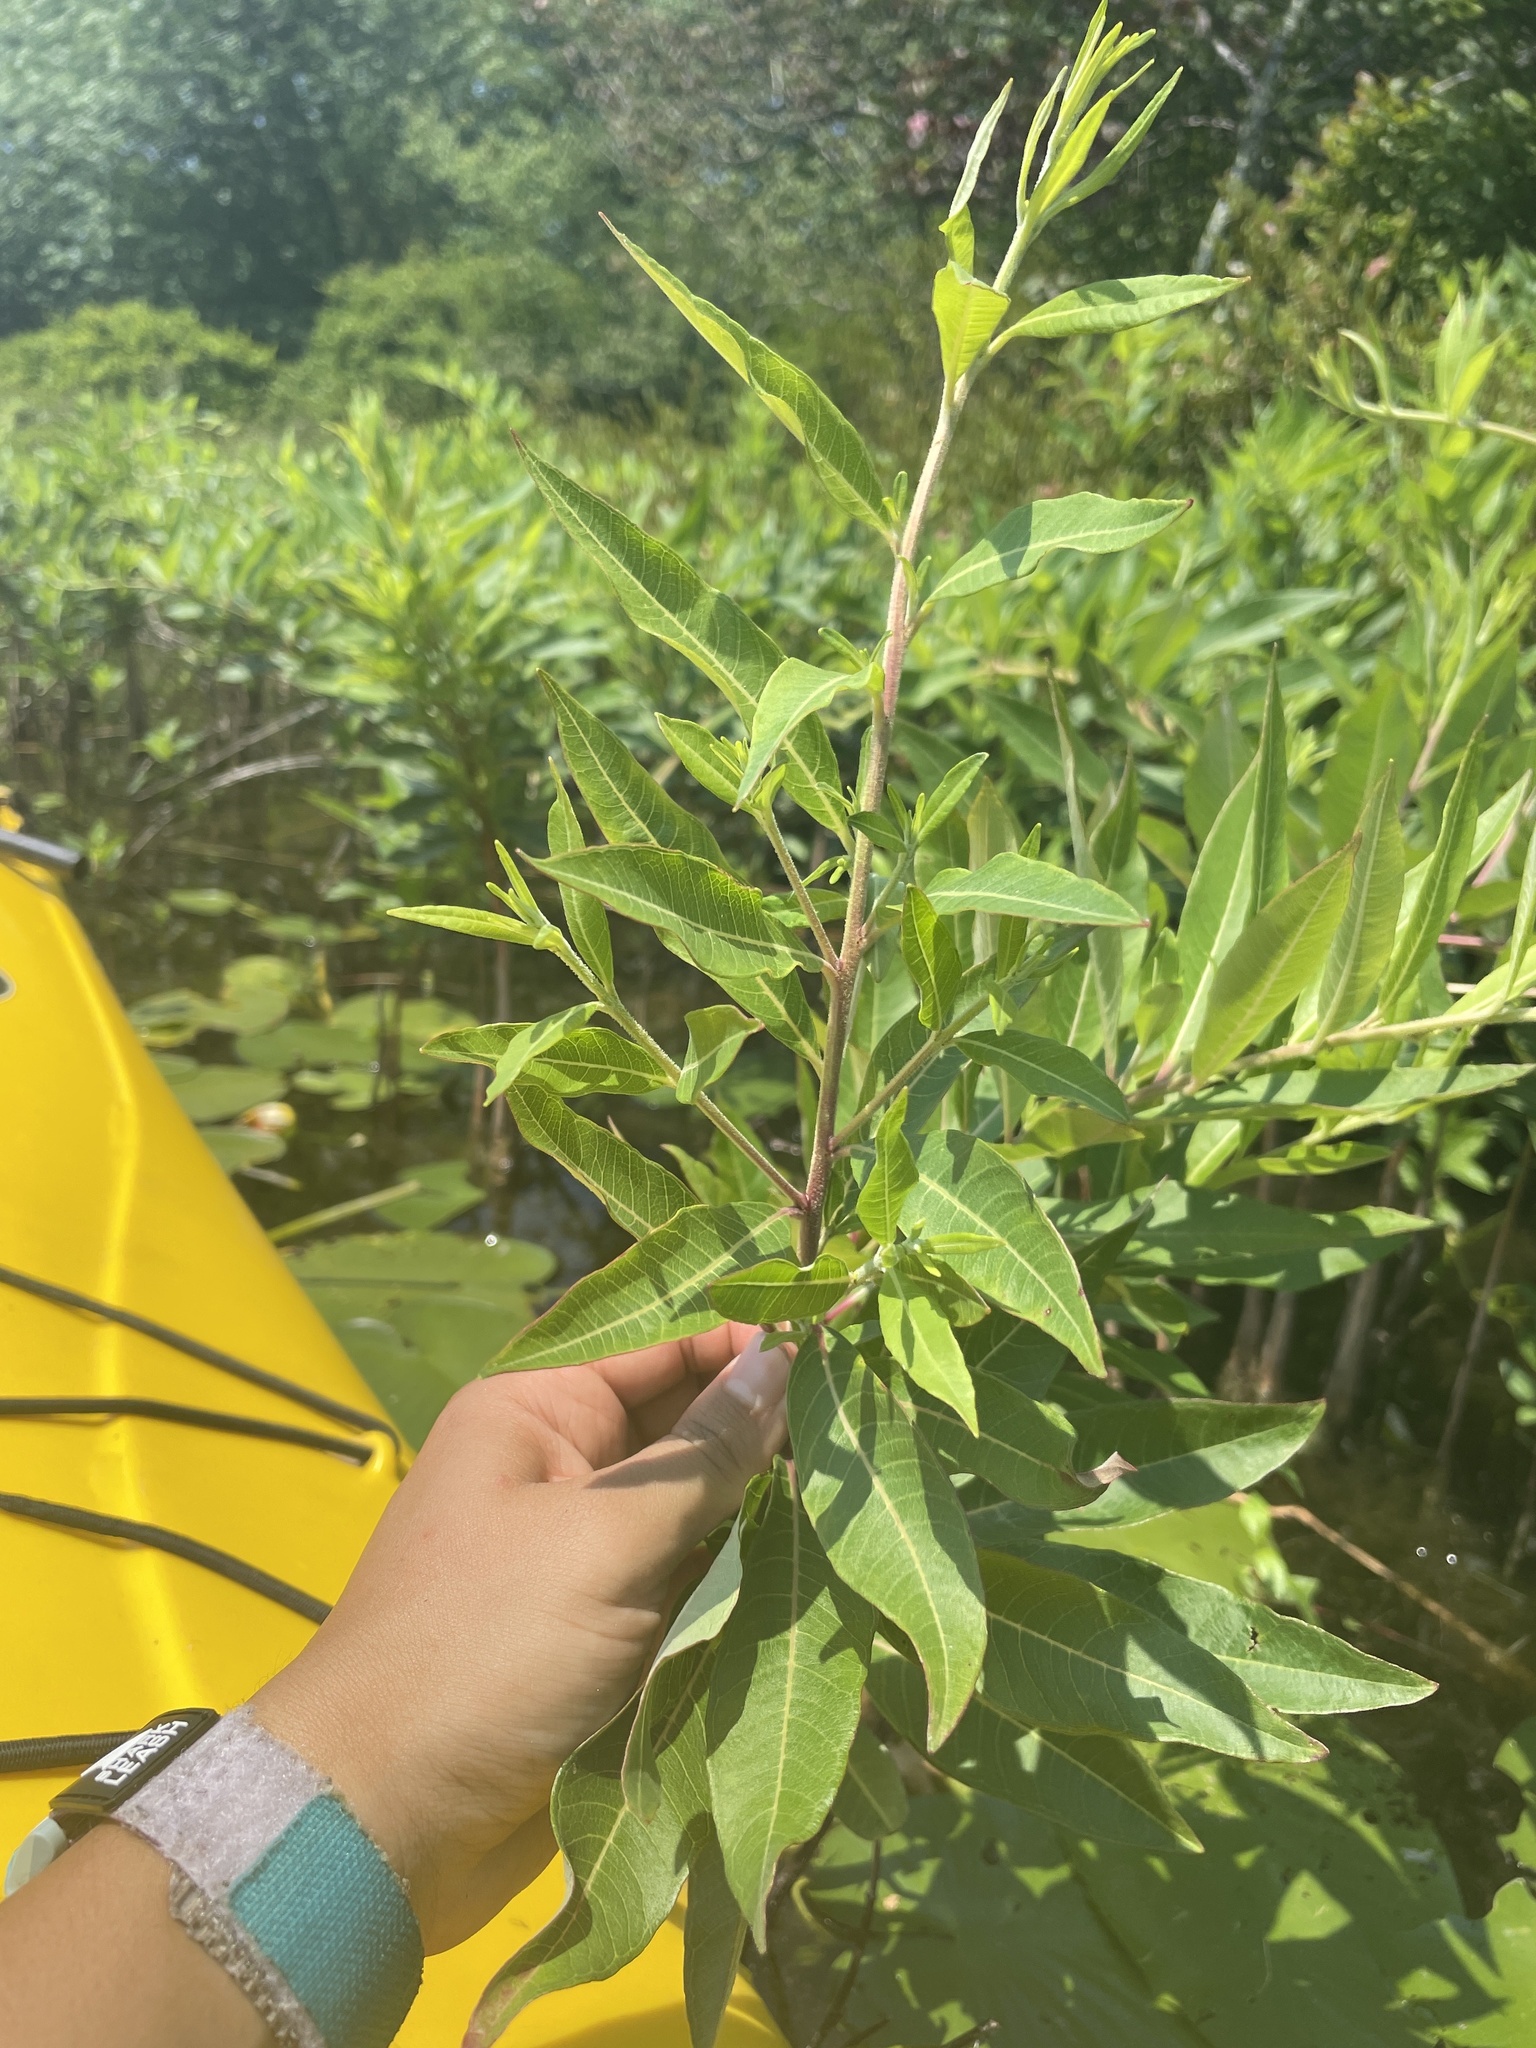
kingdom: Plantae
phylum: Tracheophyta
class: Magnoliopsida
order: Myrtales
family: Lythraceae
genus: Decodon
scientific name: Decodon verticillatus
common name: Hairy swamp loosestrife
